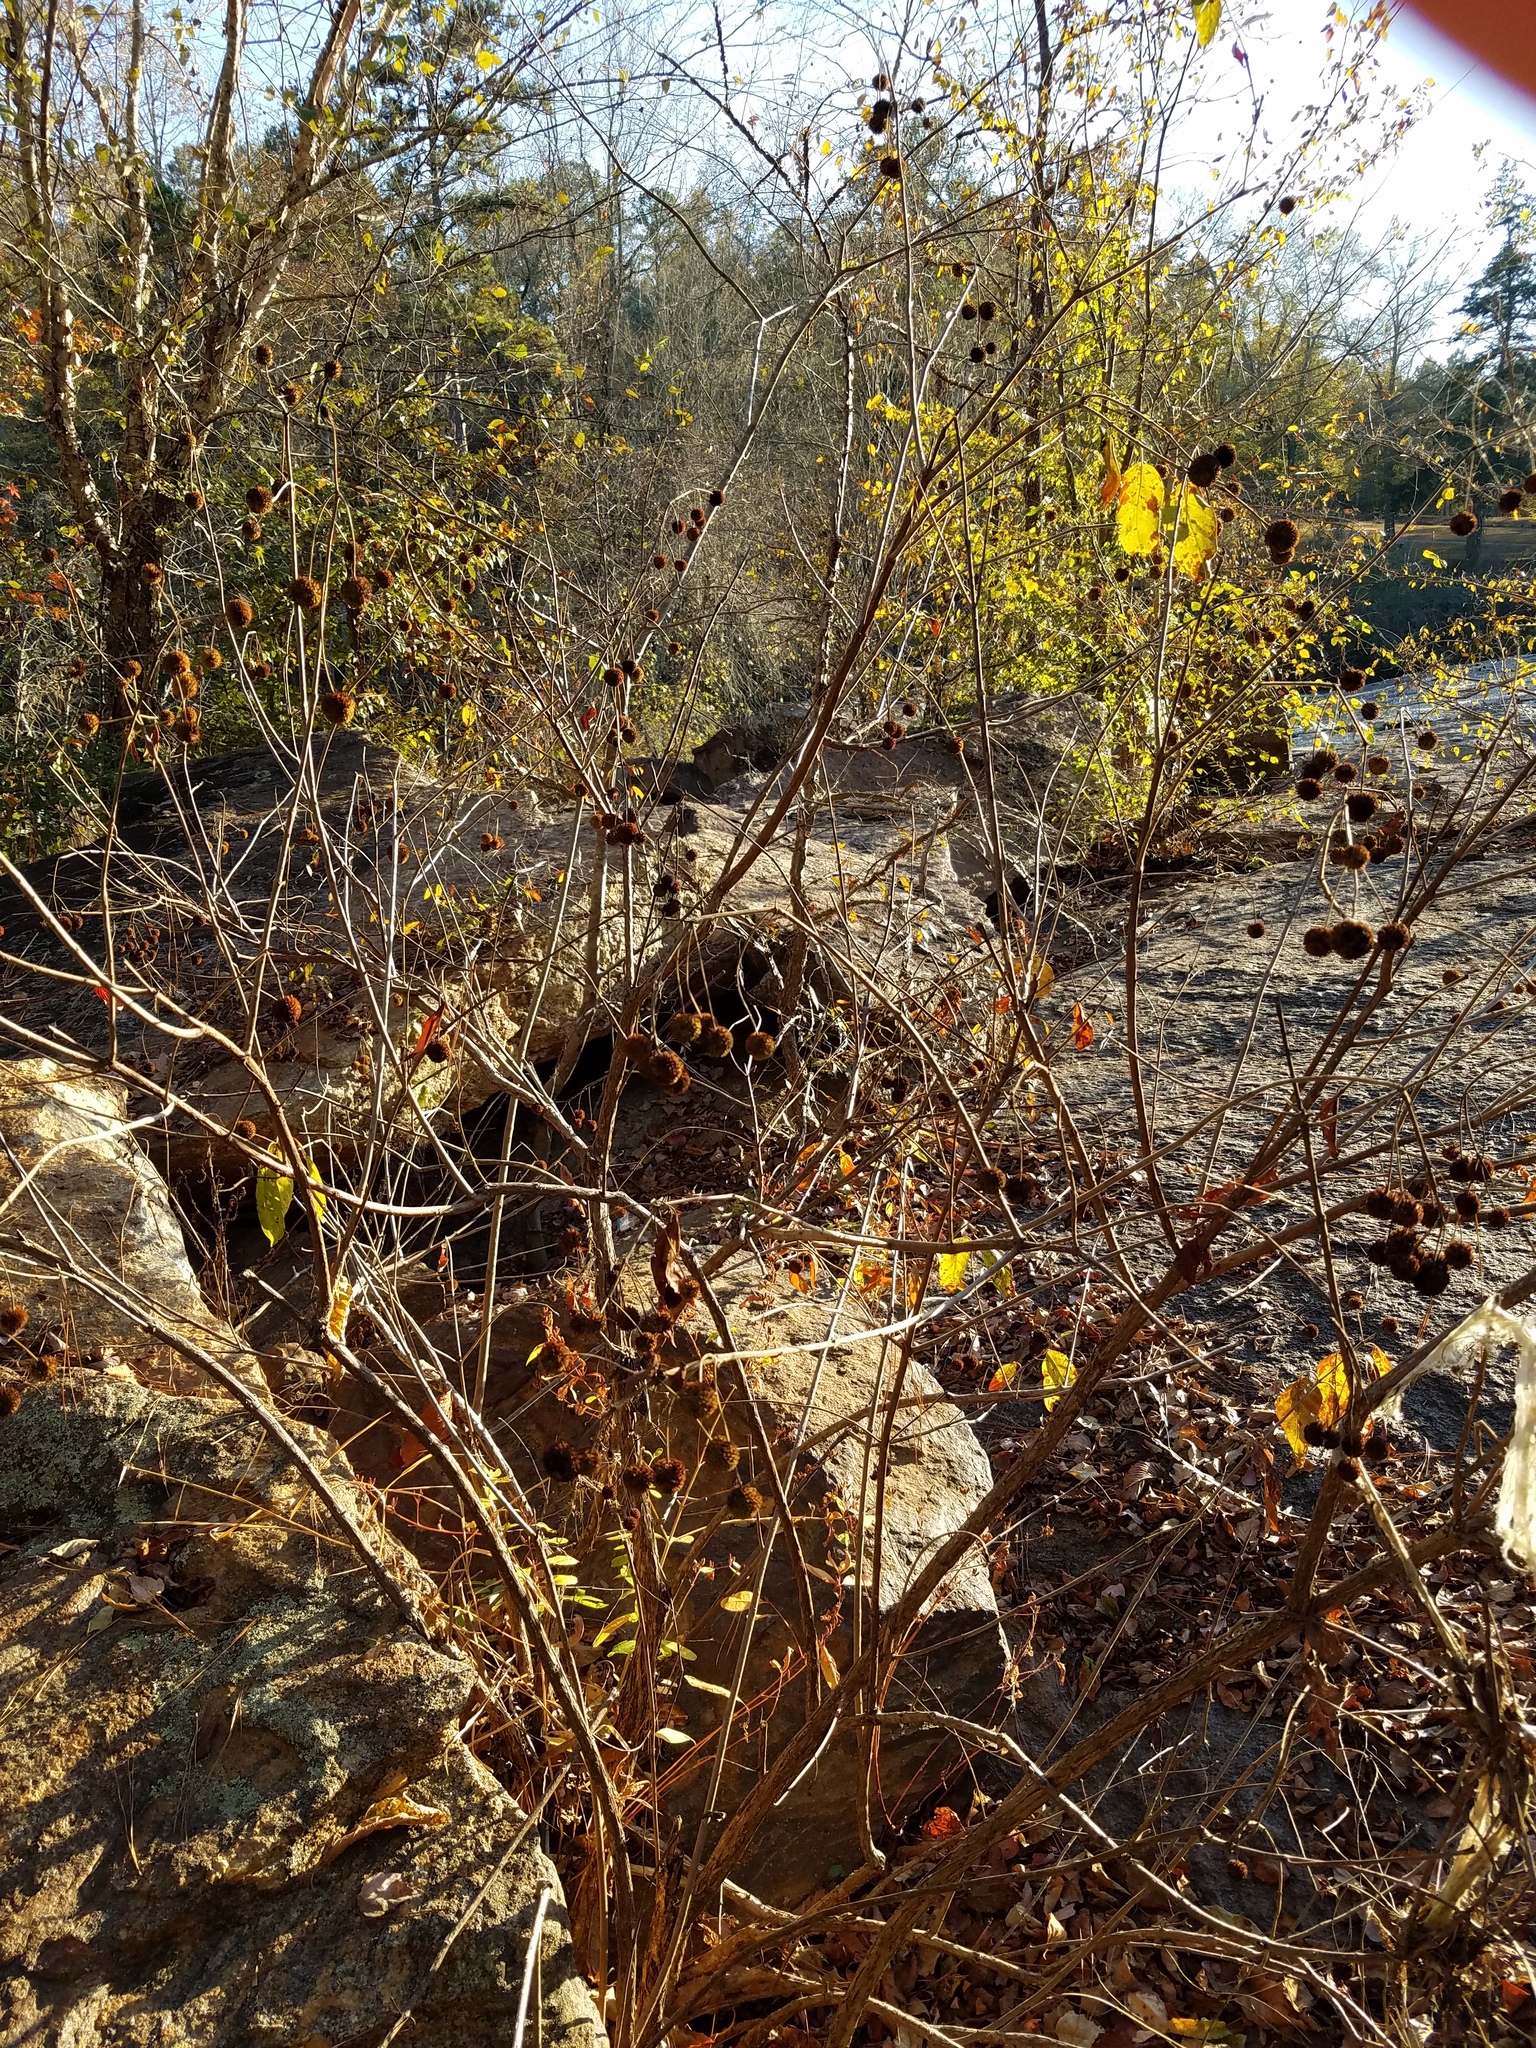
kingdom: Plantae
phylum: Tracheophyta
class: Magnoliopsida
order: Gentianales
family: Rubiaceae
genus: Cephalanthus
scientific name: Cephalanthus occidentalis
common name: Button-willow
